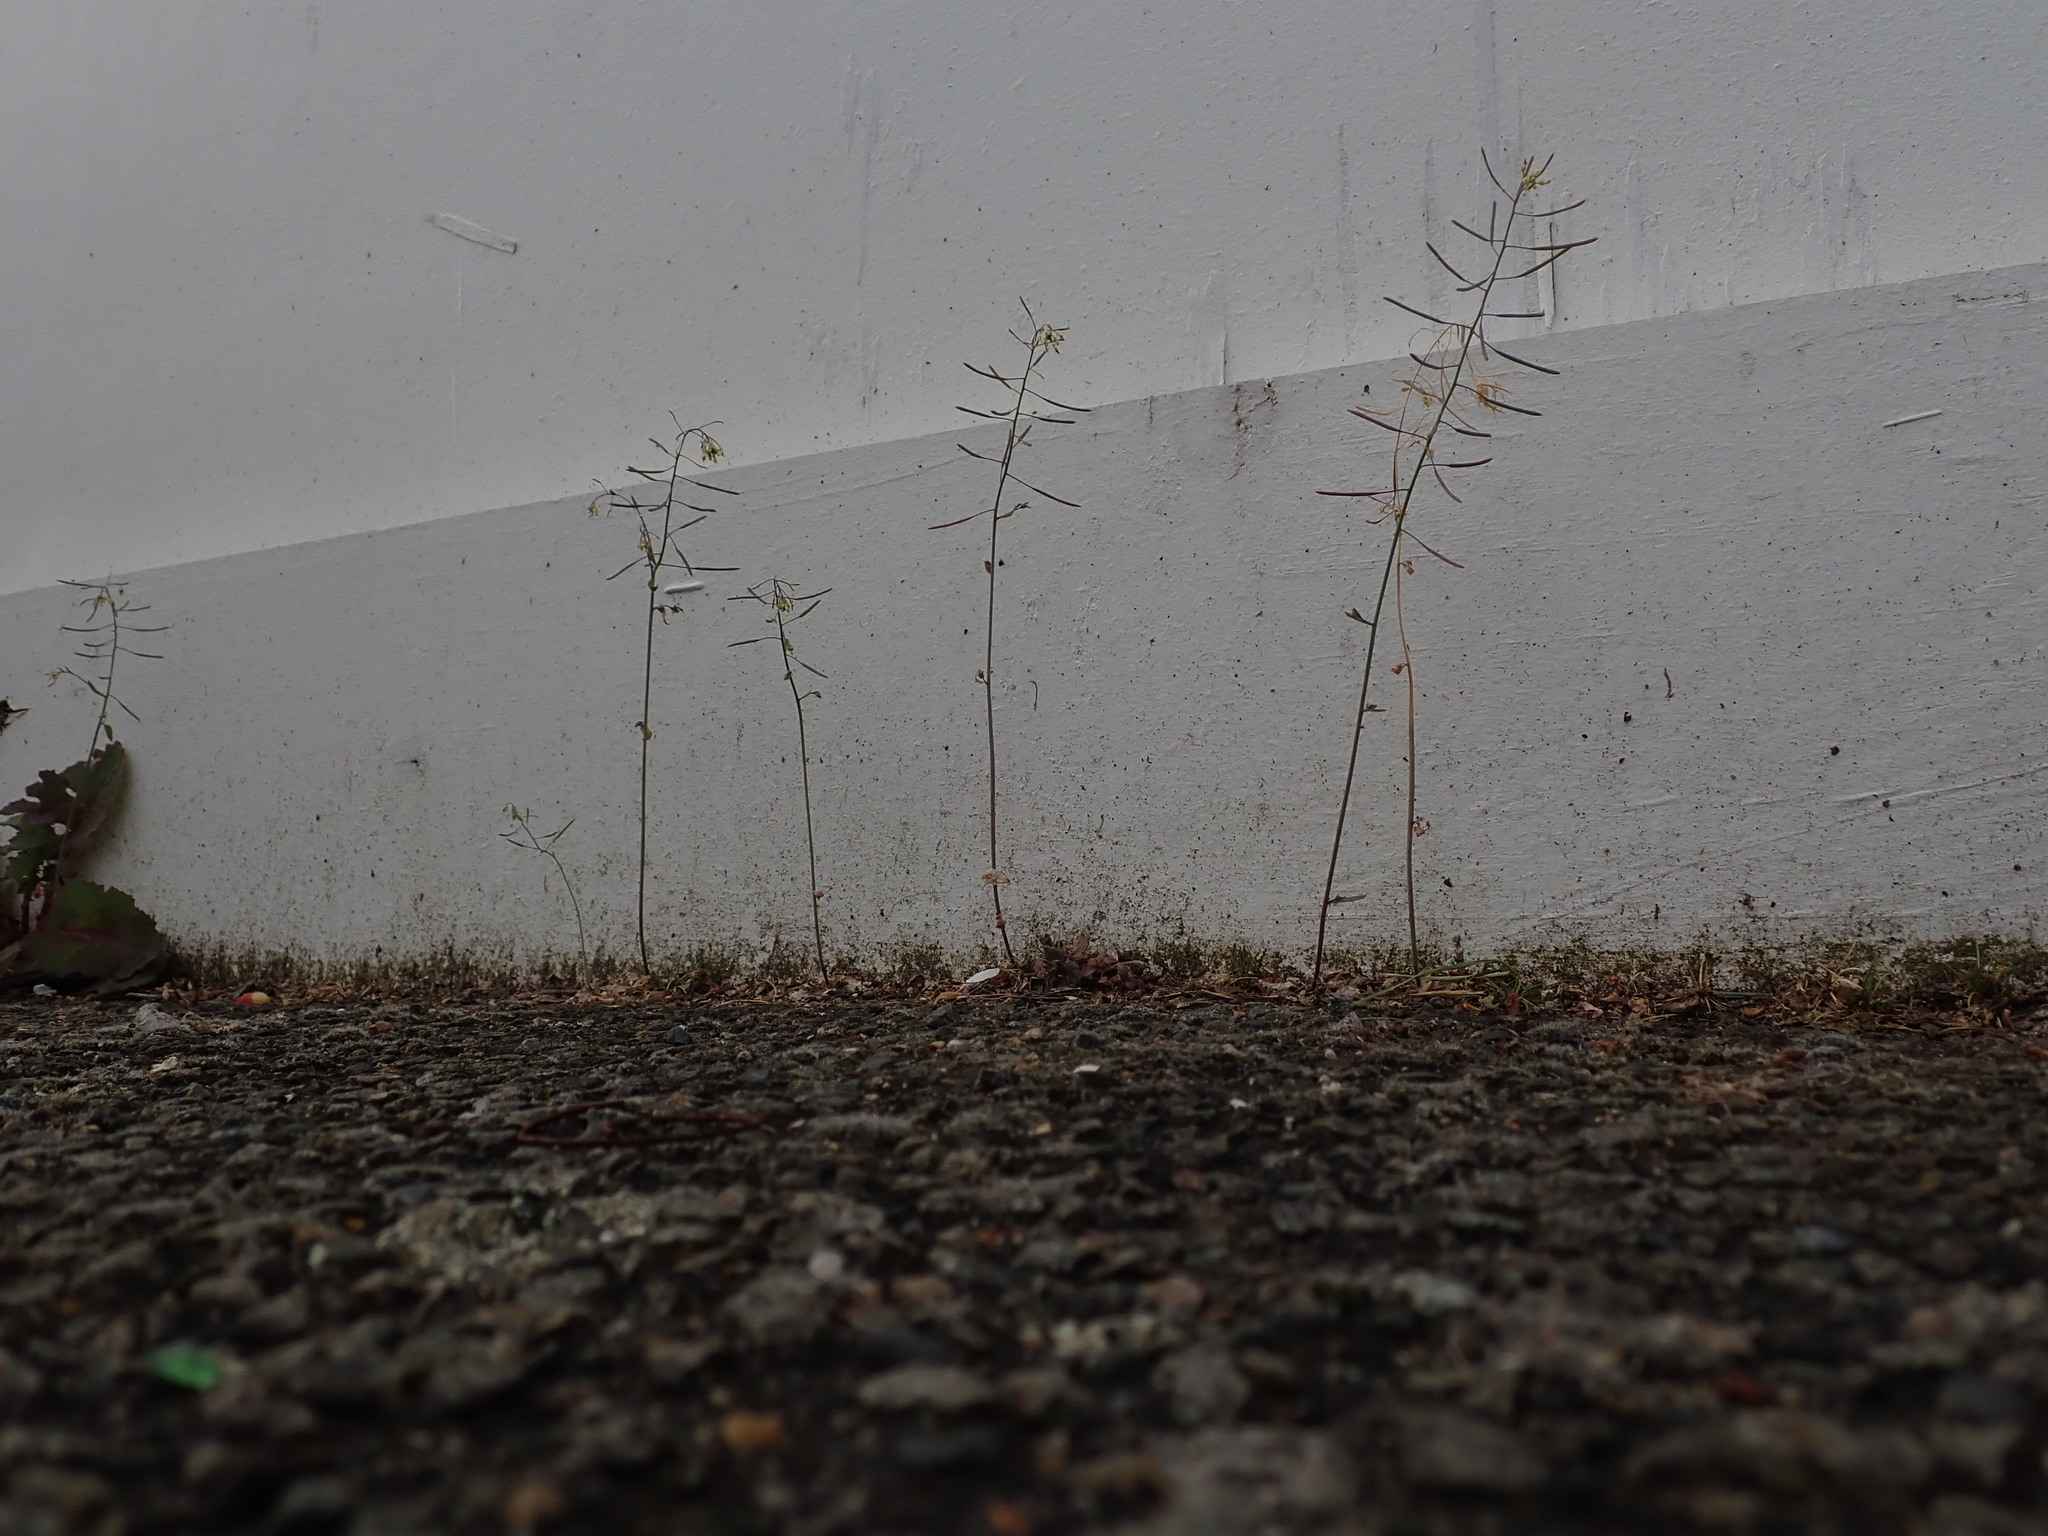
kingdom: Plantae
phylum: Tracheophyta
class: Magnoliopsida
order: Brassicales
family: Brassicaceae
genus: Arabidopsis
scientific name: Arabidopsis thaliana
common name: Thale cress
